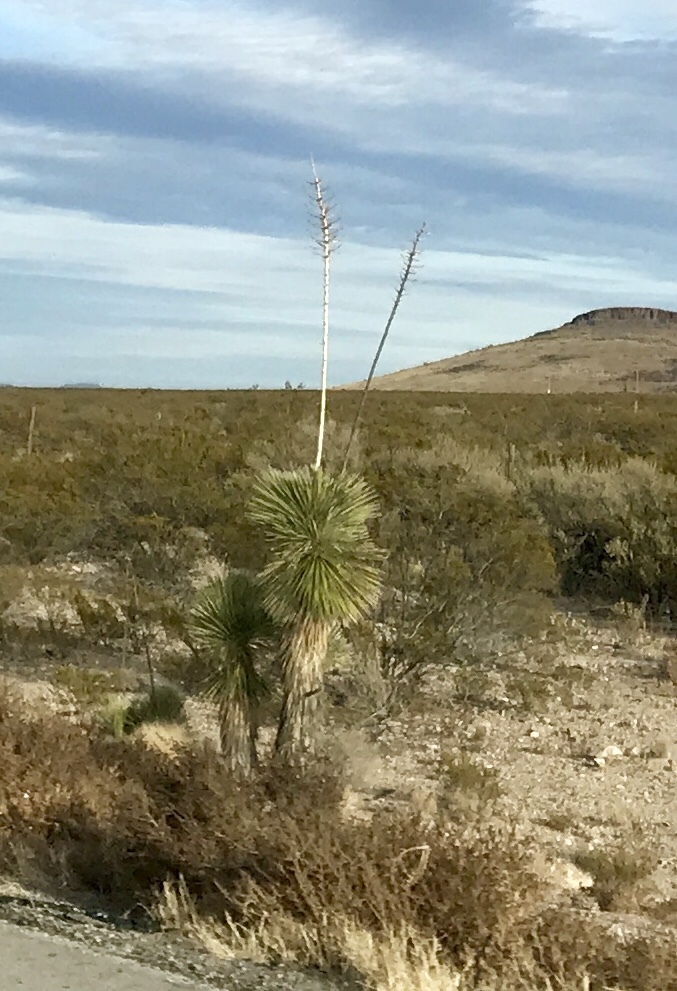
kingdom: Plantae
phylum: Tracheophyta
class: Liliopsida
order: Asparagales
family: Asparagaceae
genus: Yucca
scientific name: Yucca elata
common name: Palmella
